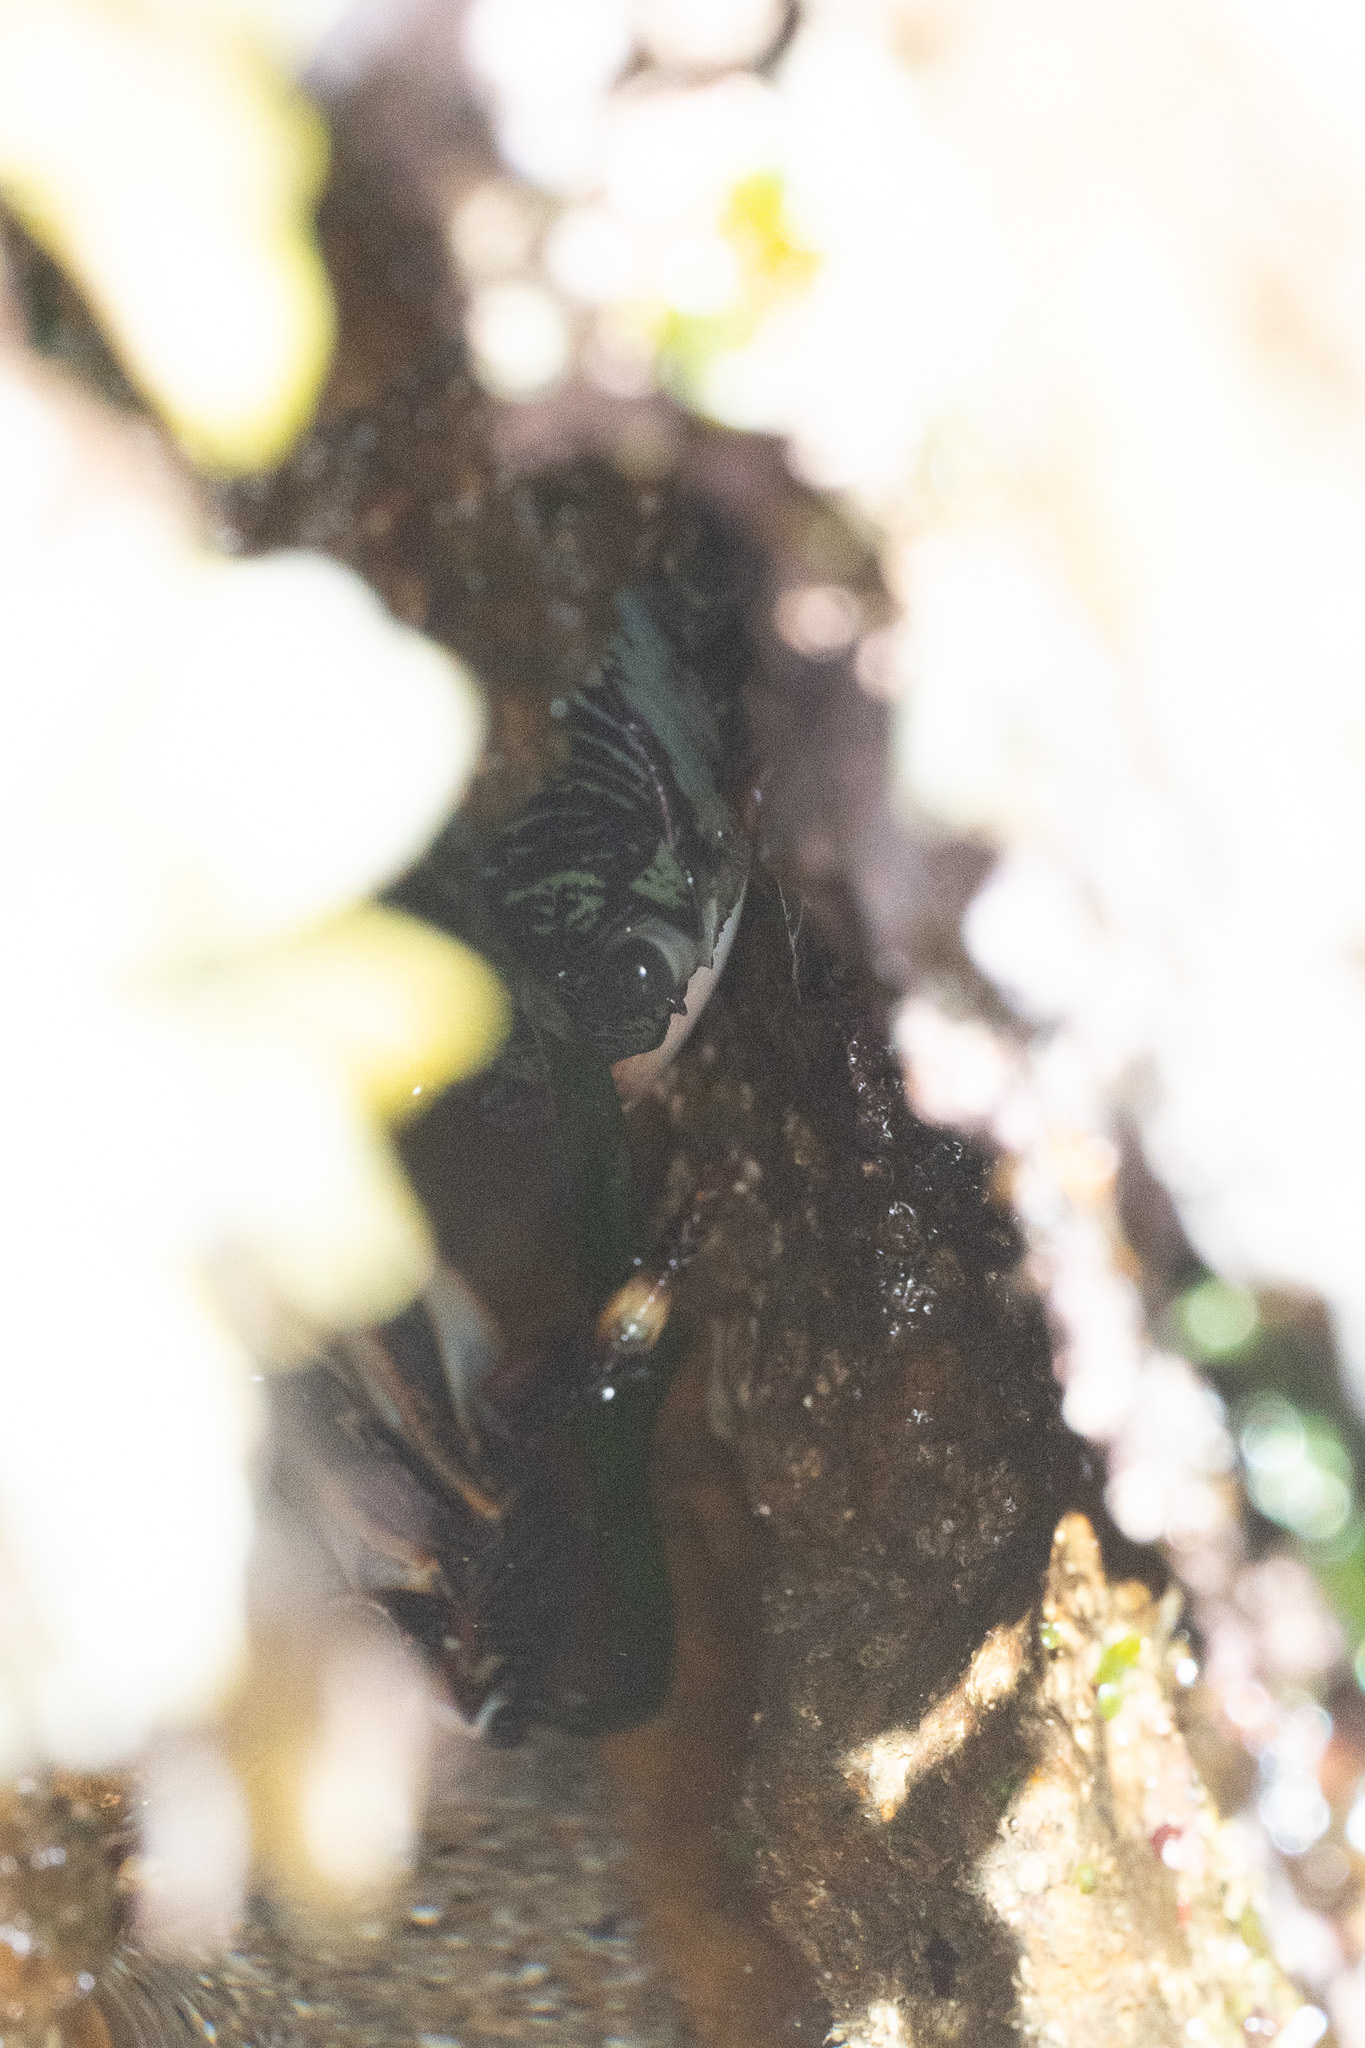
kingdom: Animalia
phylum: Arthropoda
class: Malacostraca
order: Decapoda
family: Grapsidae
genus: Pachygrapsus
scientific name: Pachygrapsus crassipes
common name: Striped shore crab
